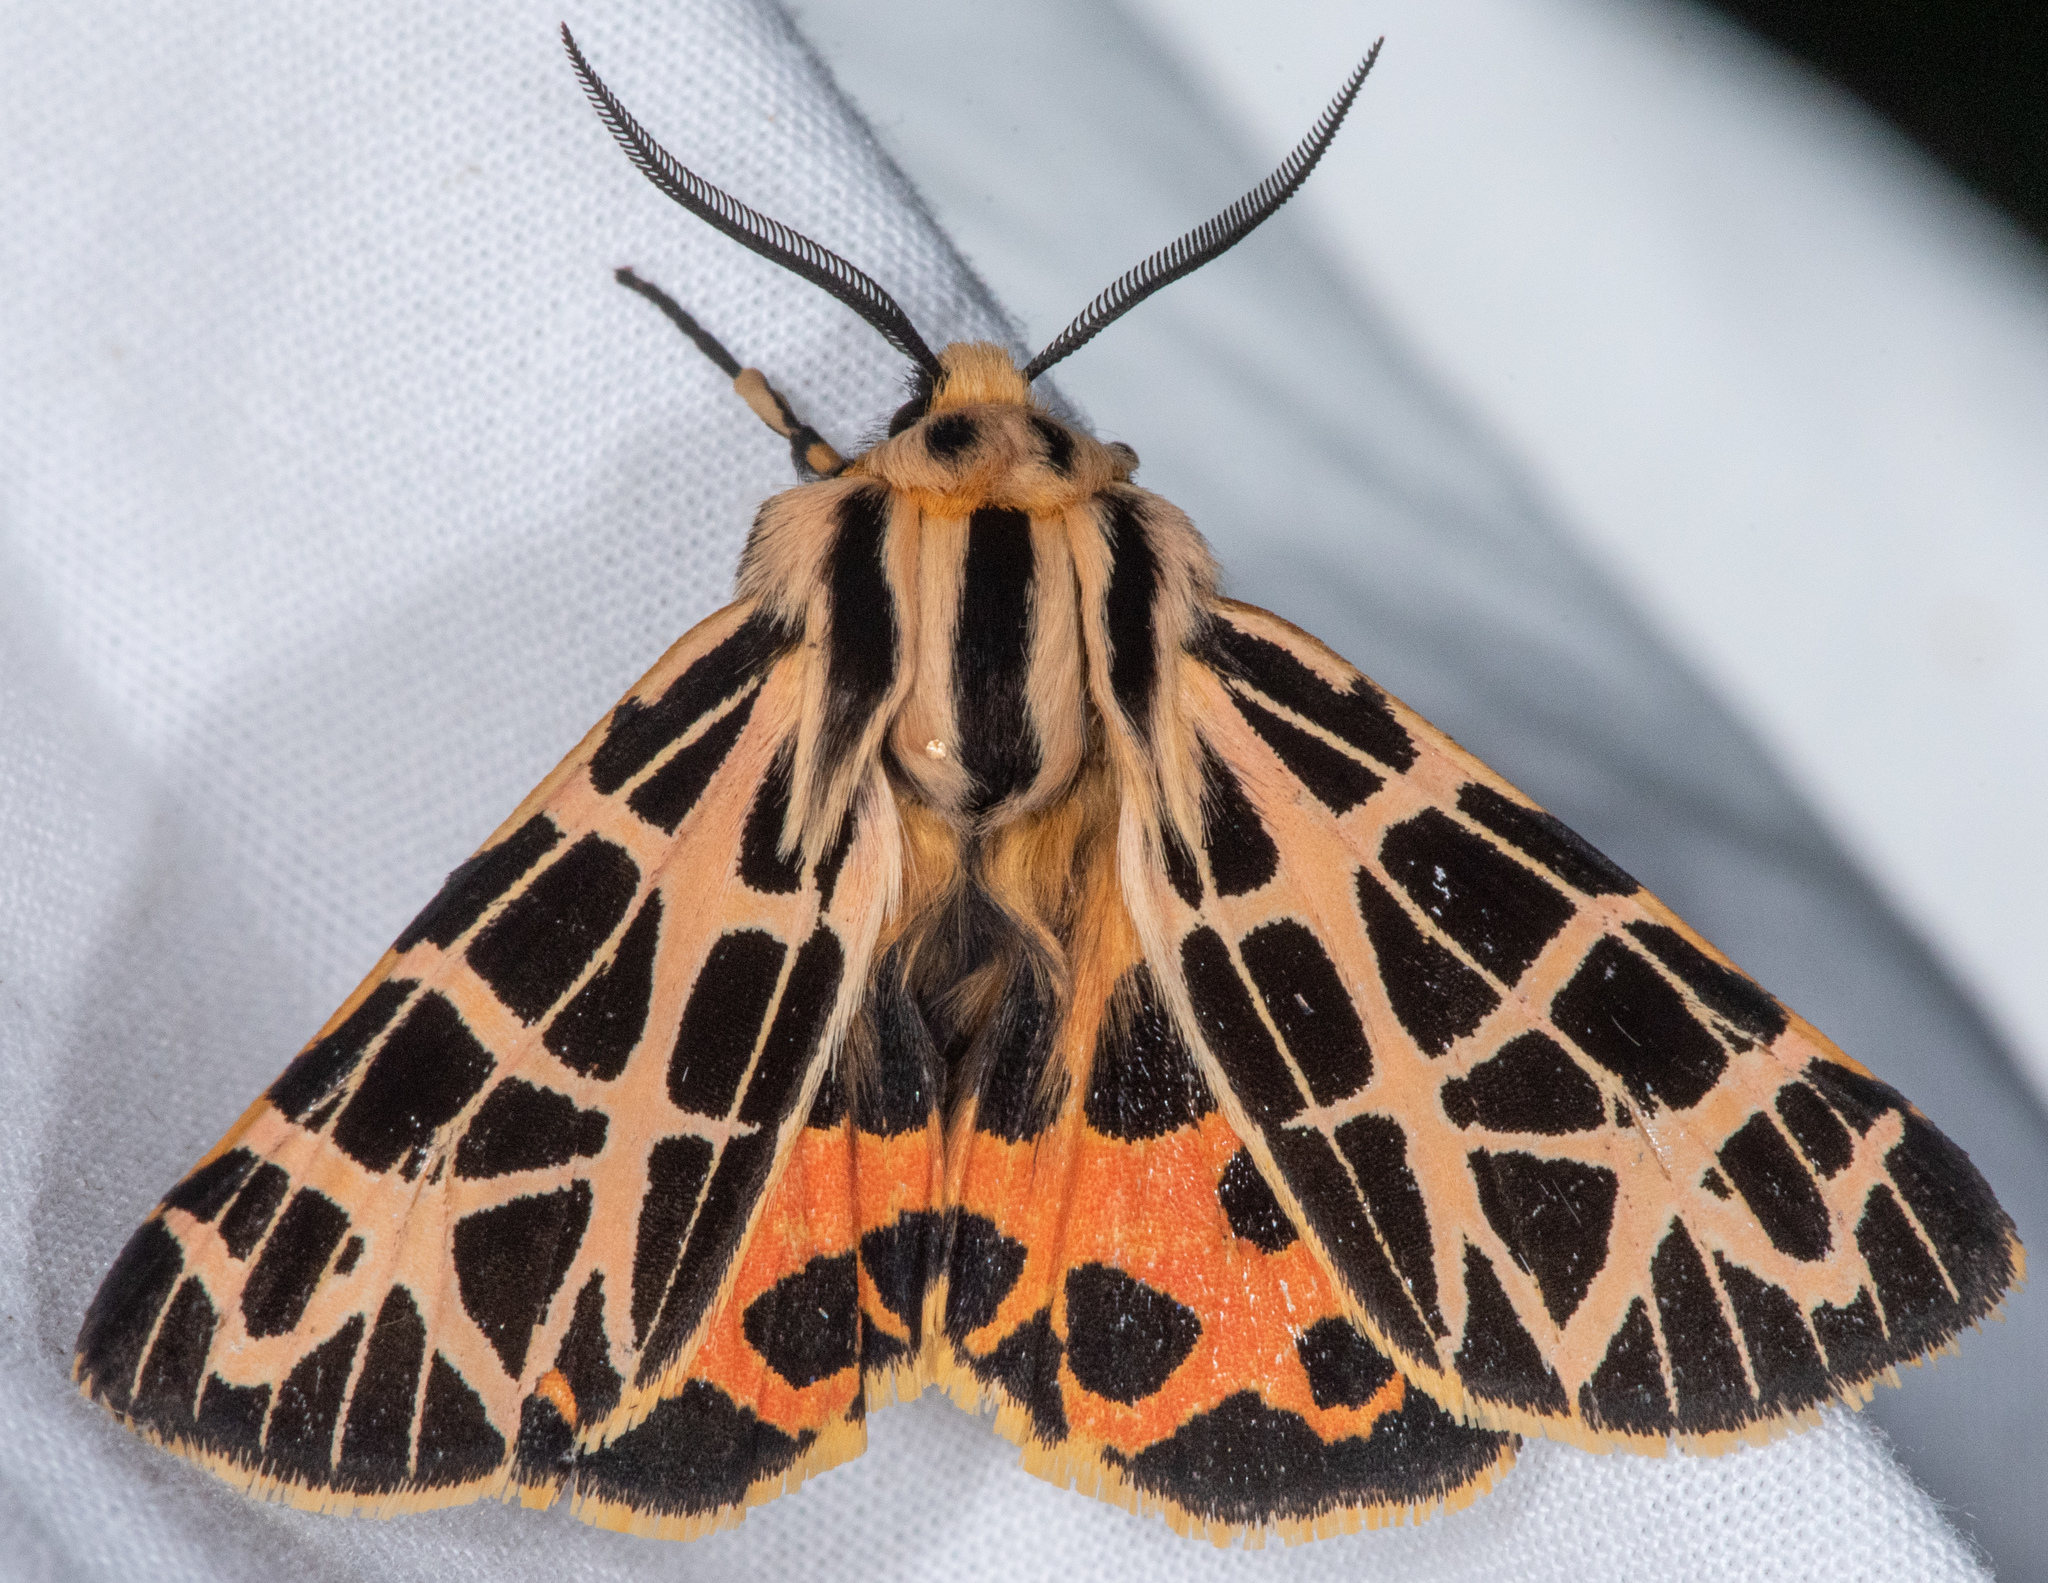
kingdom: Animalia
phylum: Arthropoda
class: Insecta
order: Lepidoptera
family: Erebidae
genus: Apantesis
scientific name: Apantesis
